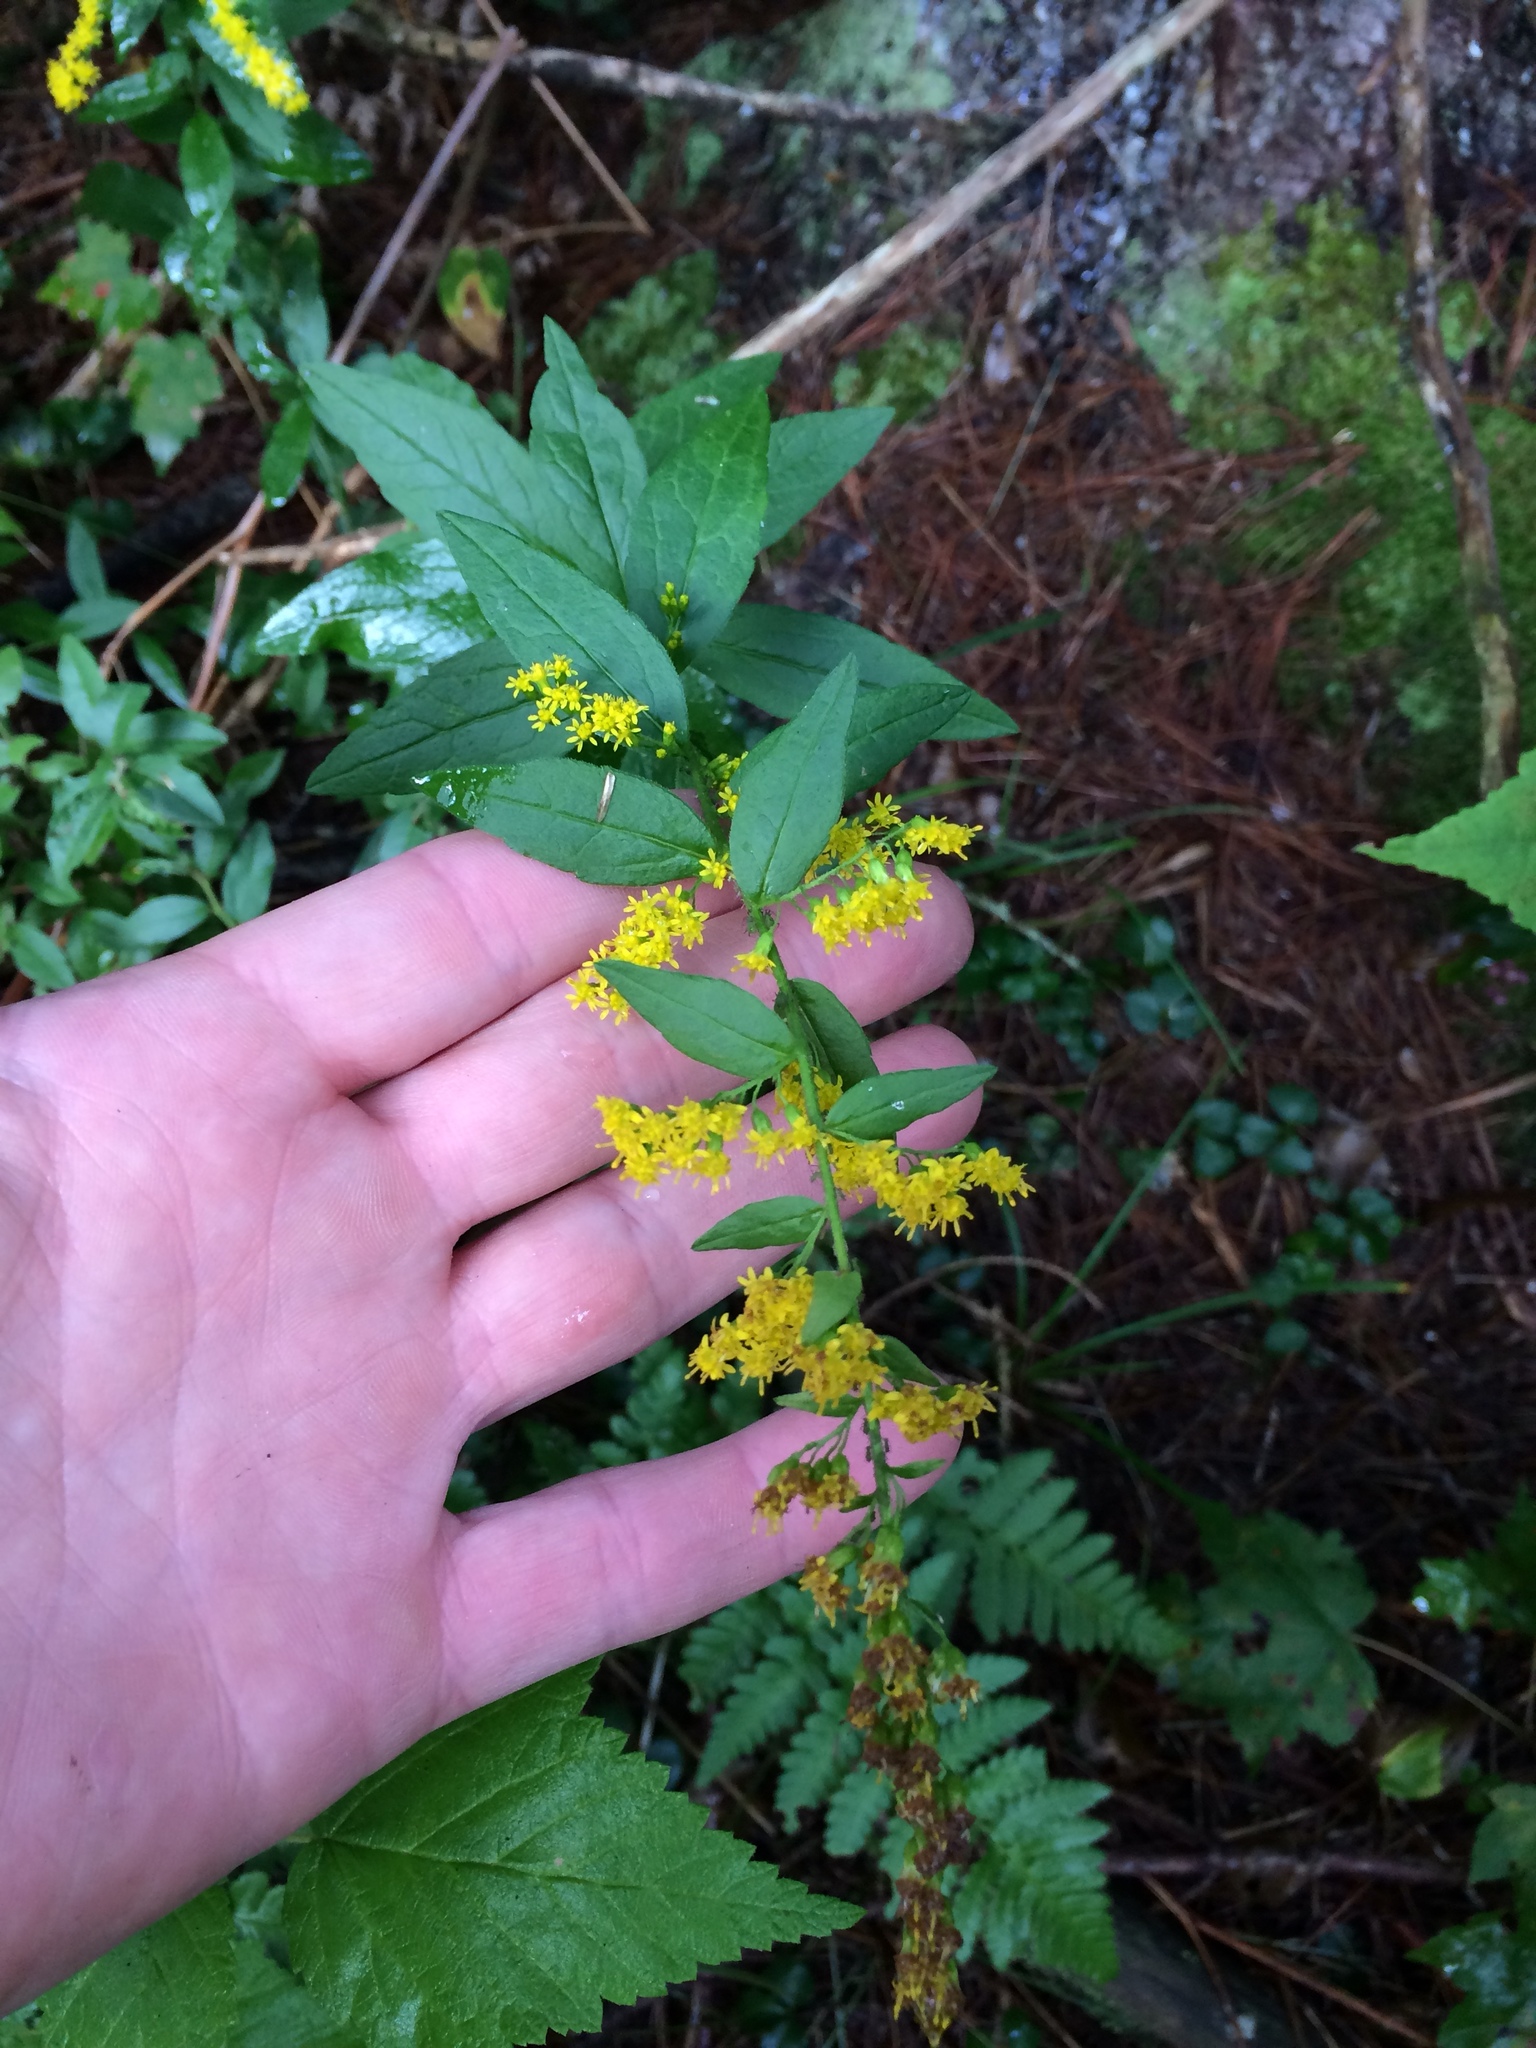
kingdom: Plantae
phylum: Tracheophyta
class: Magnoliopsida
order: Asterales
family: Asteraceae
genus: Solidago
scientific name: Solidago rugosa
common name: Rough-stemmed goldenrod
